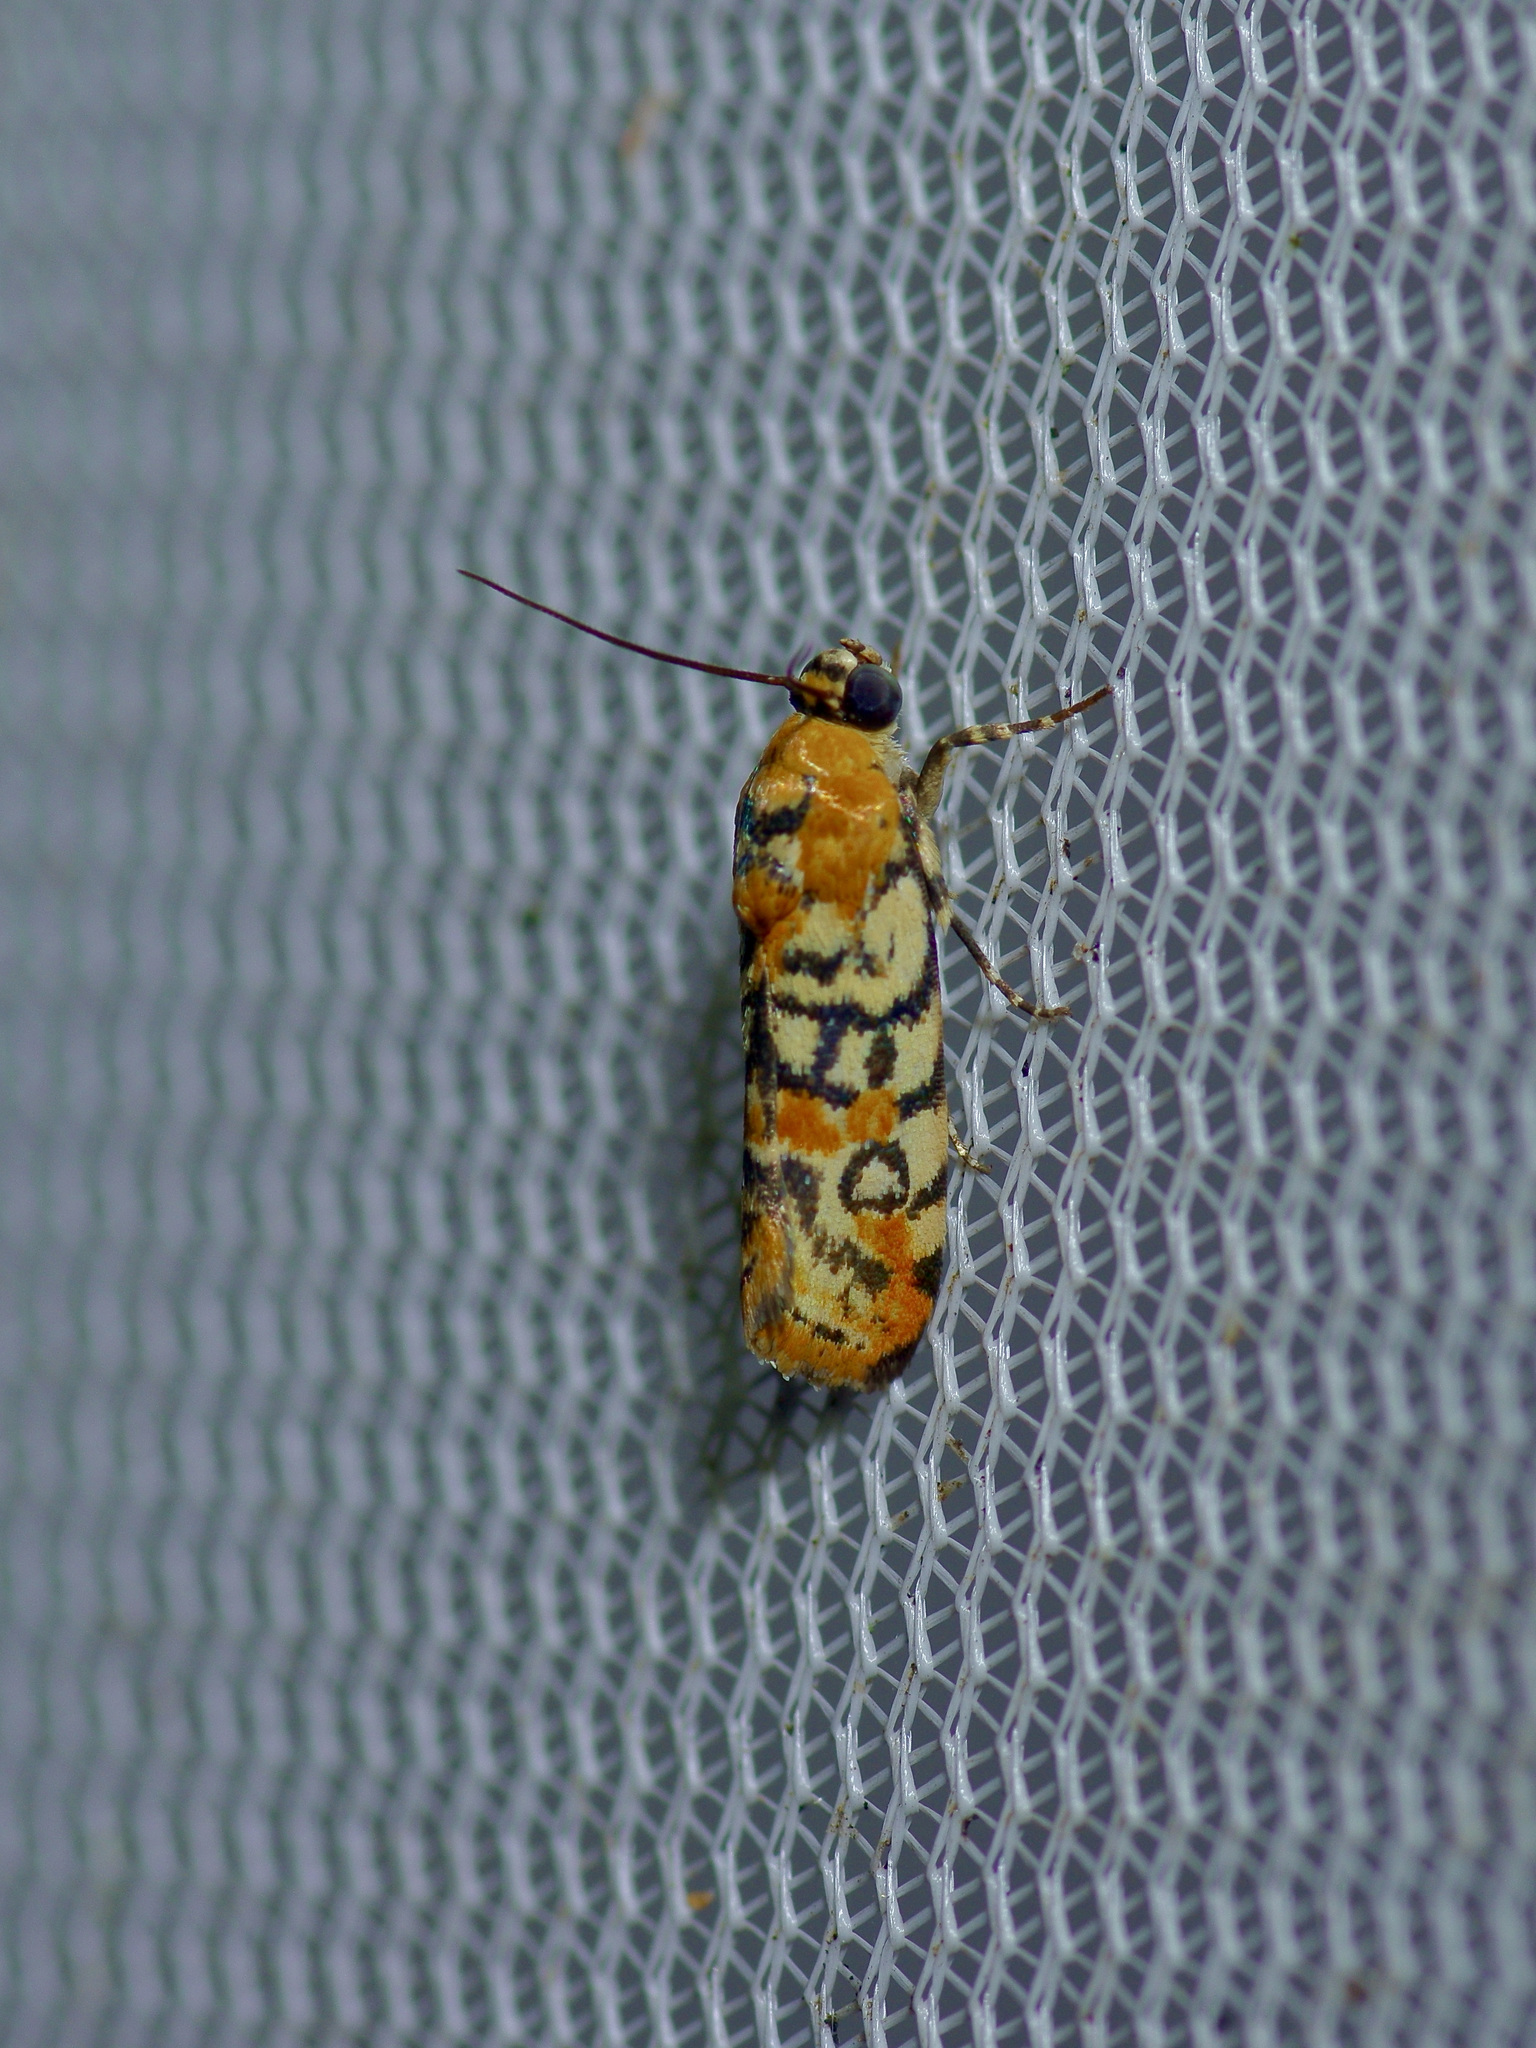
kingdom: Animalia
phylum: Arthropoda
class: Insecta
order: Lepidoptera
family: Noctuidae
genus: Spragueia
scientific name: Spragueia guttata
